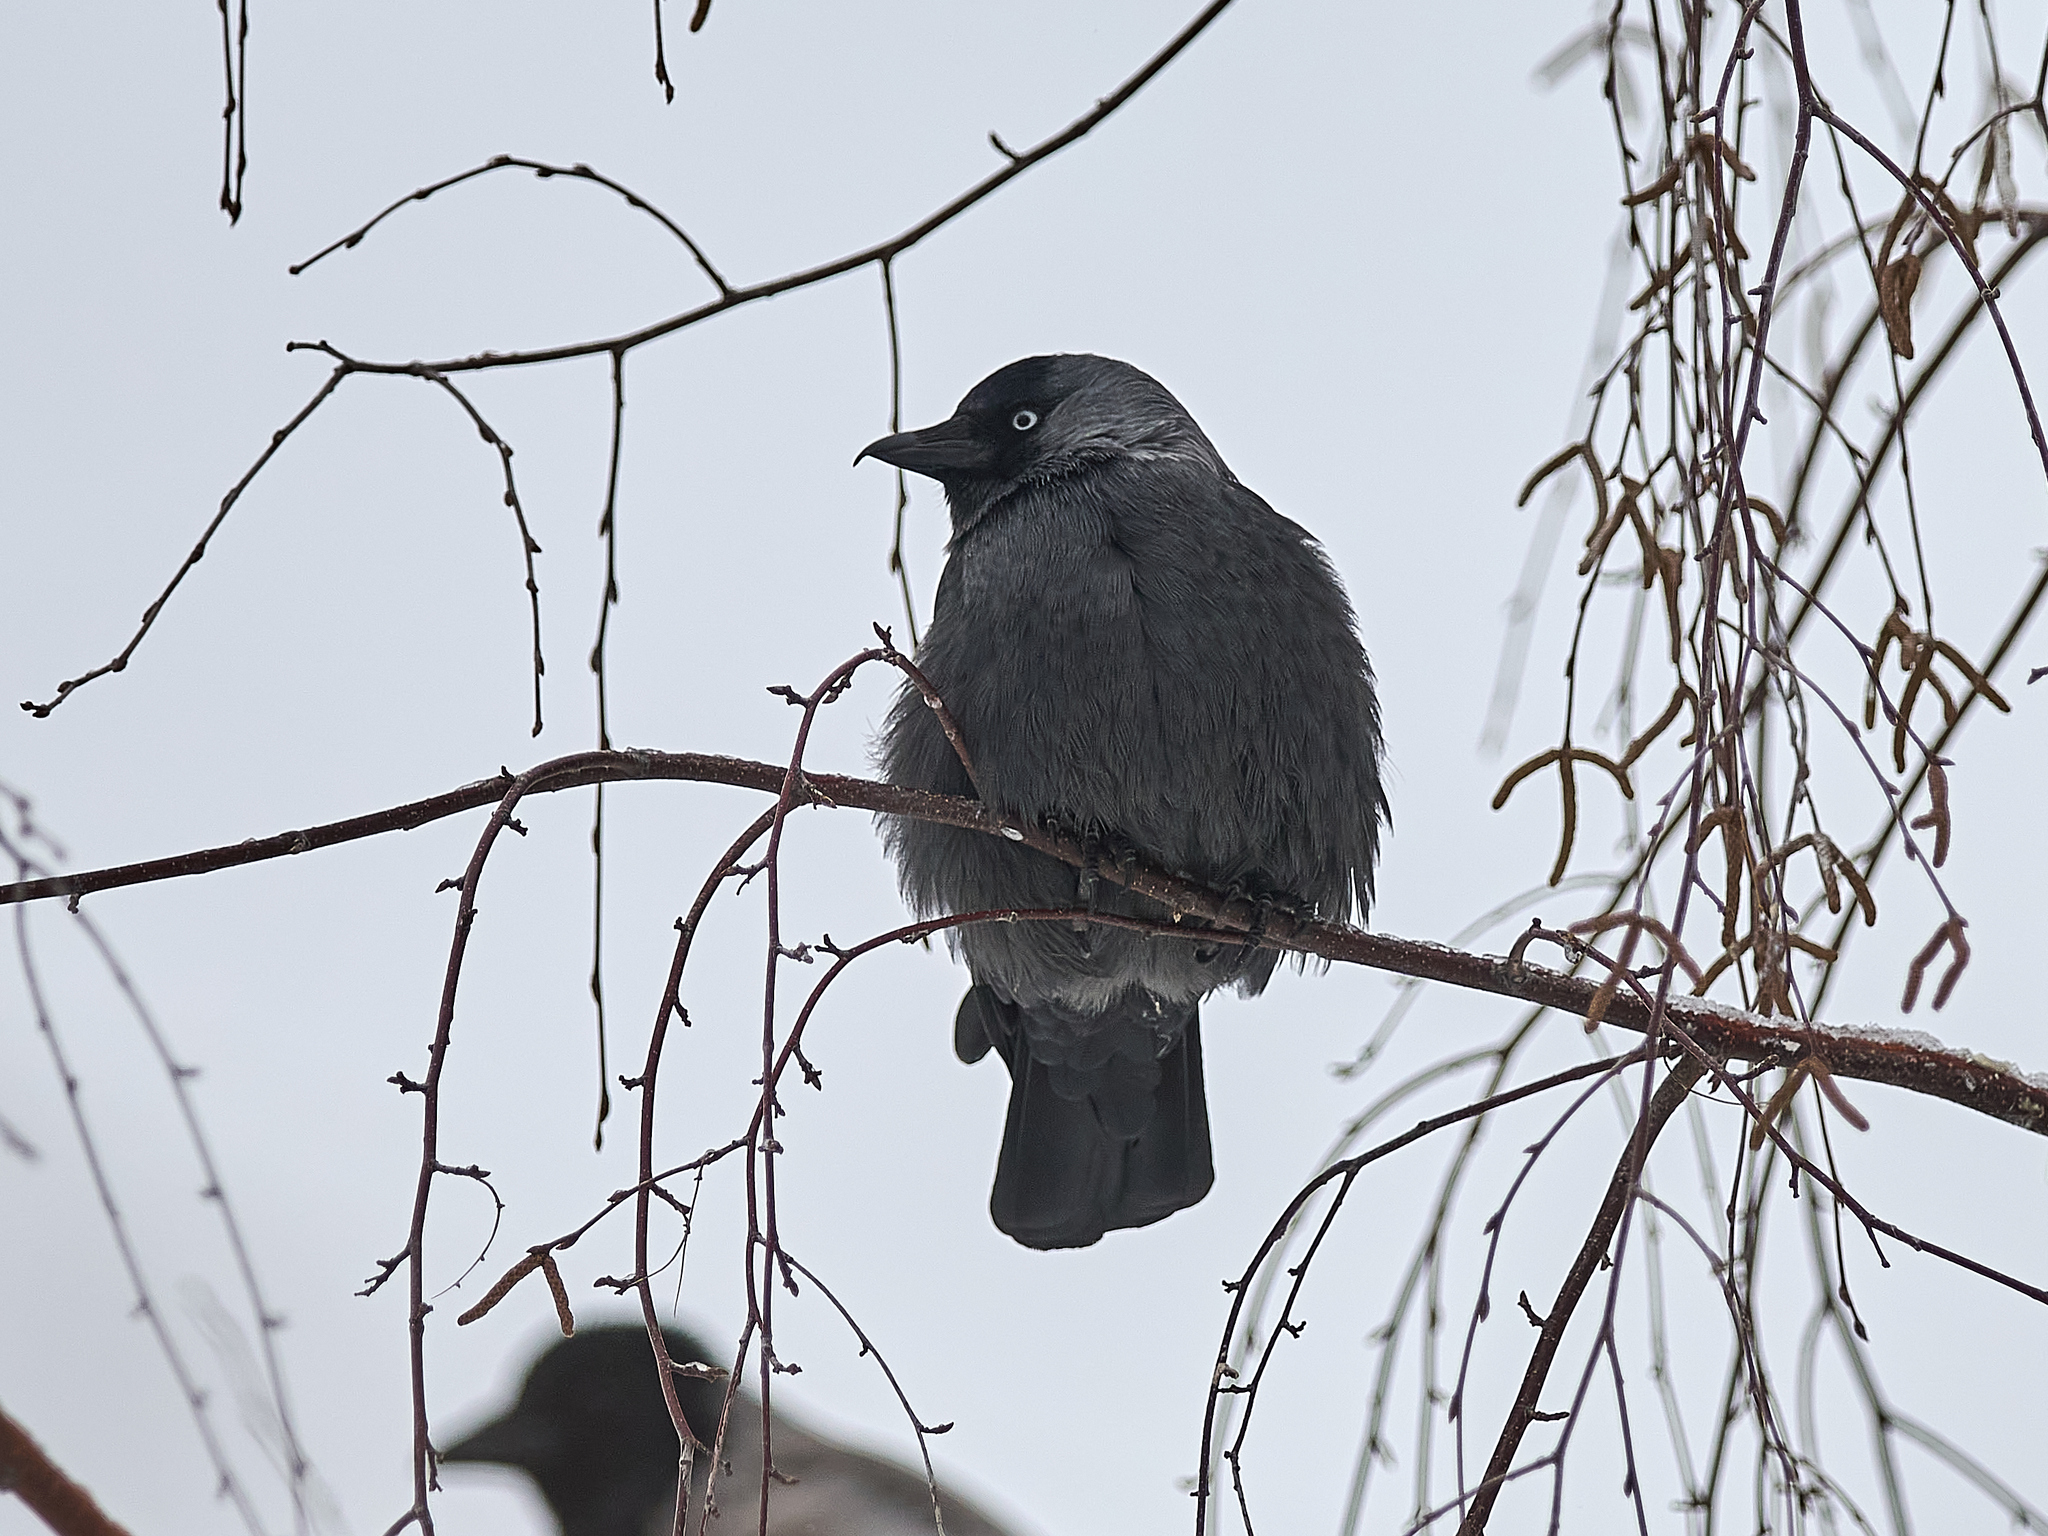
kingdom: Animalia
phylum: Chordata
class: Aves
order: Passeriformes
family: Corvidae
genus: Coloeus
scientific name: Coloeus monedula
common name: Western jackdaw
